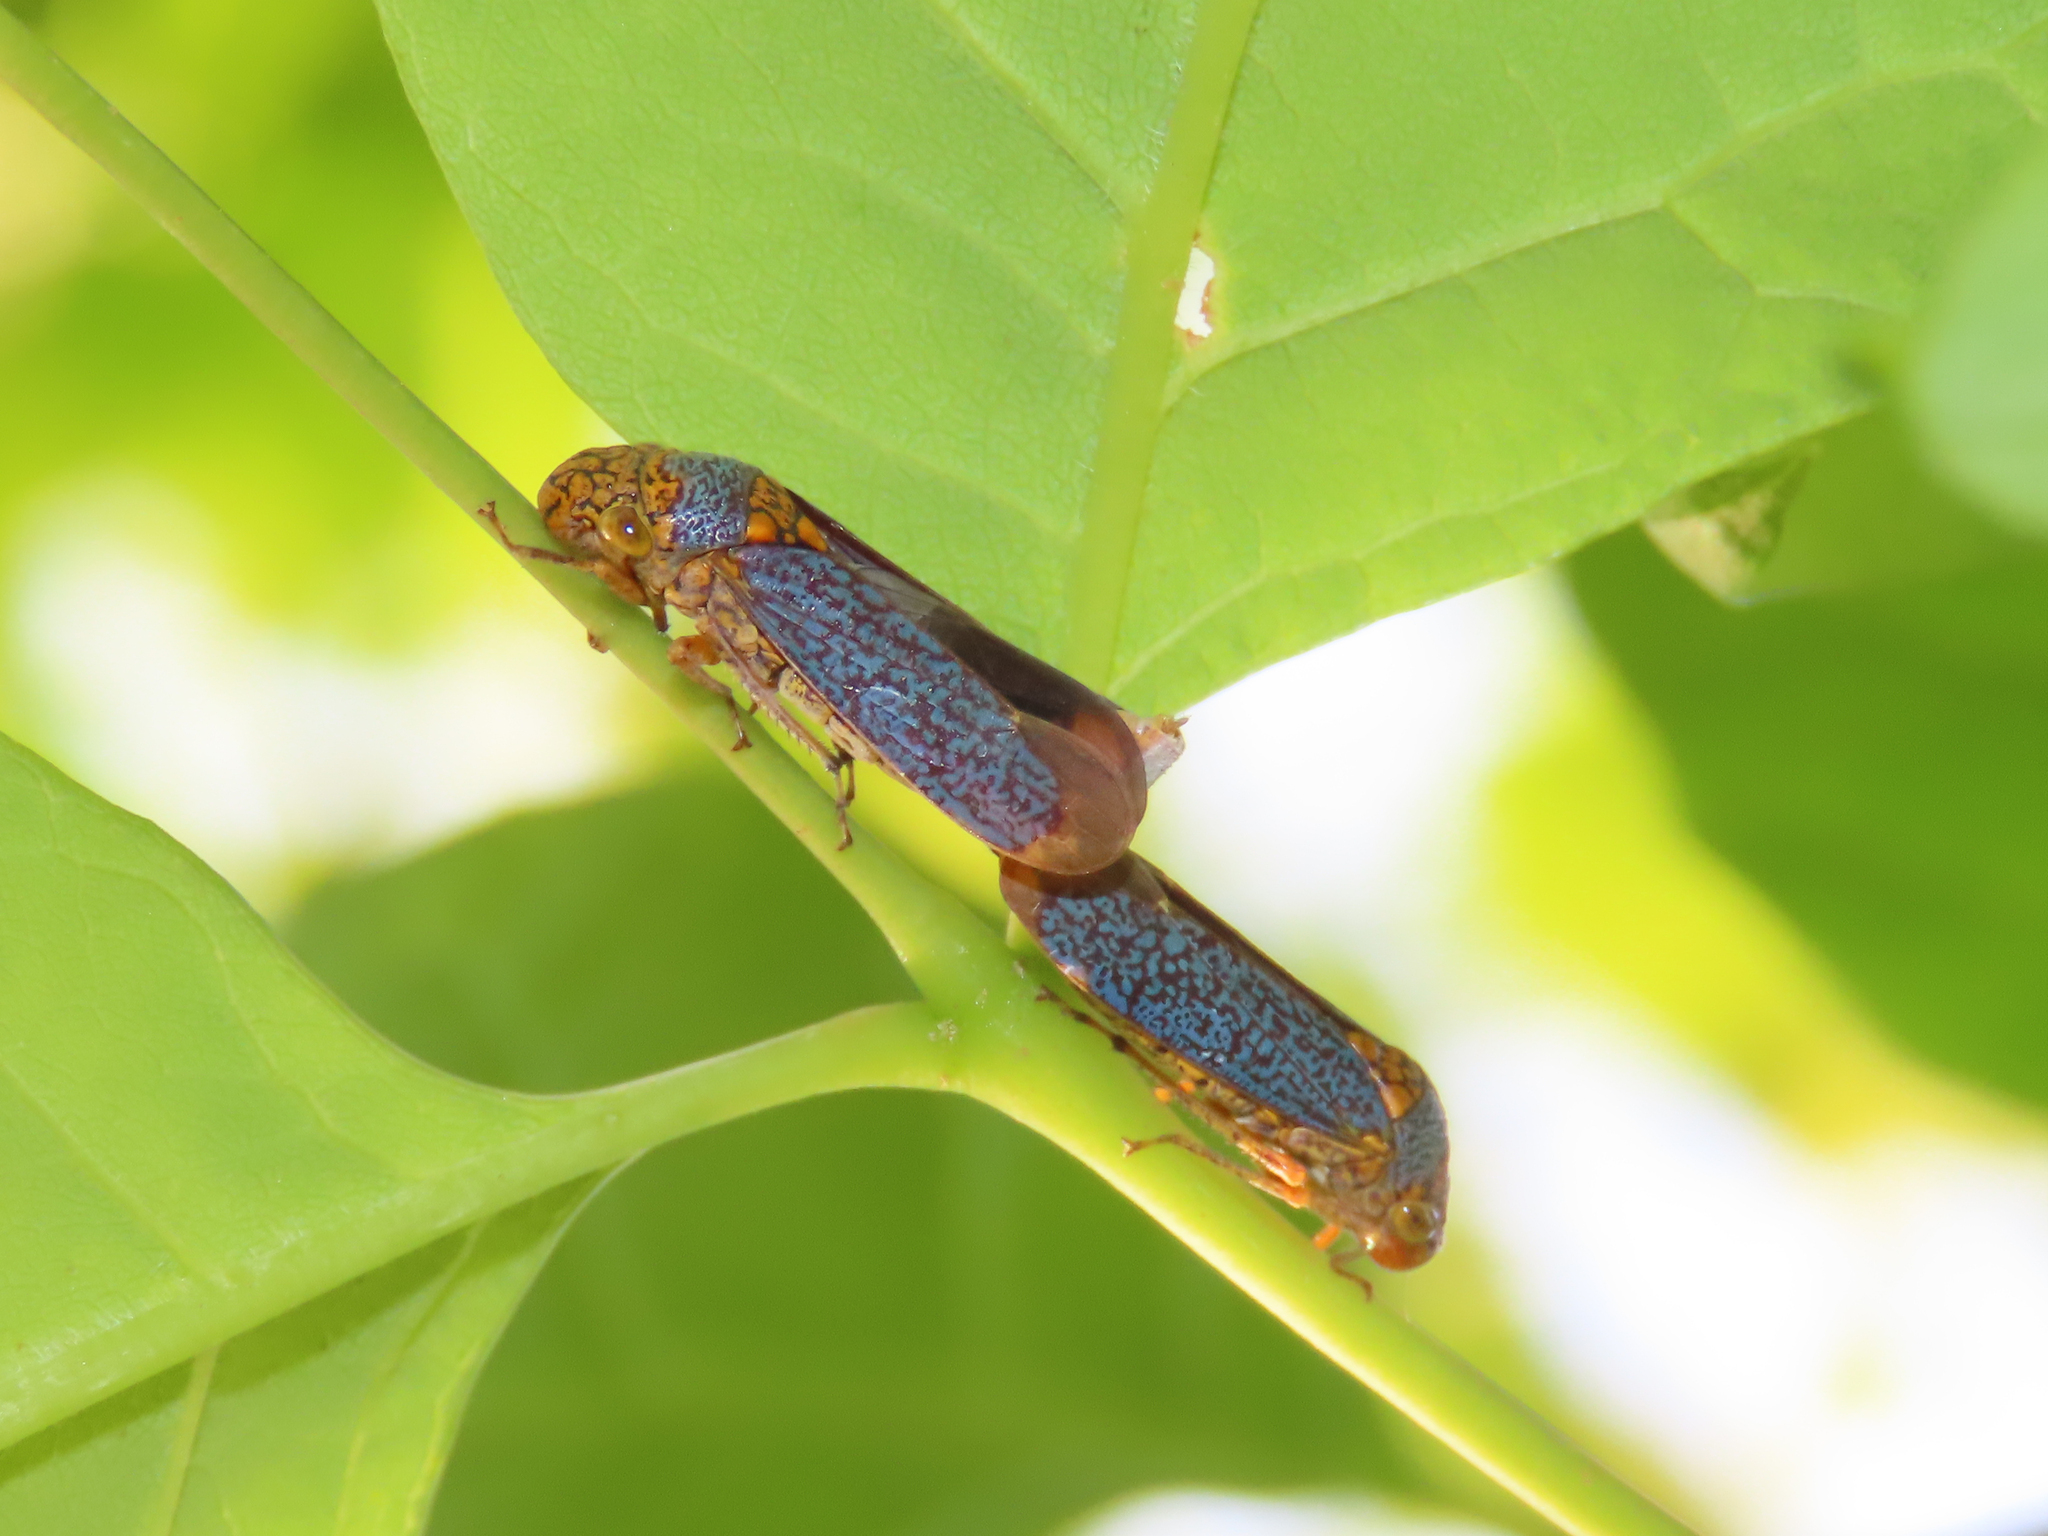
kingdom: Animalia
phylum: Arthropoda
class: Insecta
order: Hemiptera
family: Cicadellidae
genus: Oncometopia
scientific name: Oncometopia orbona
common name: Broad-headed sharpshooter
